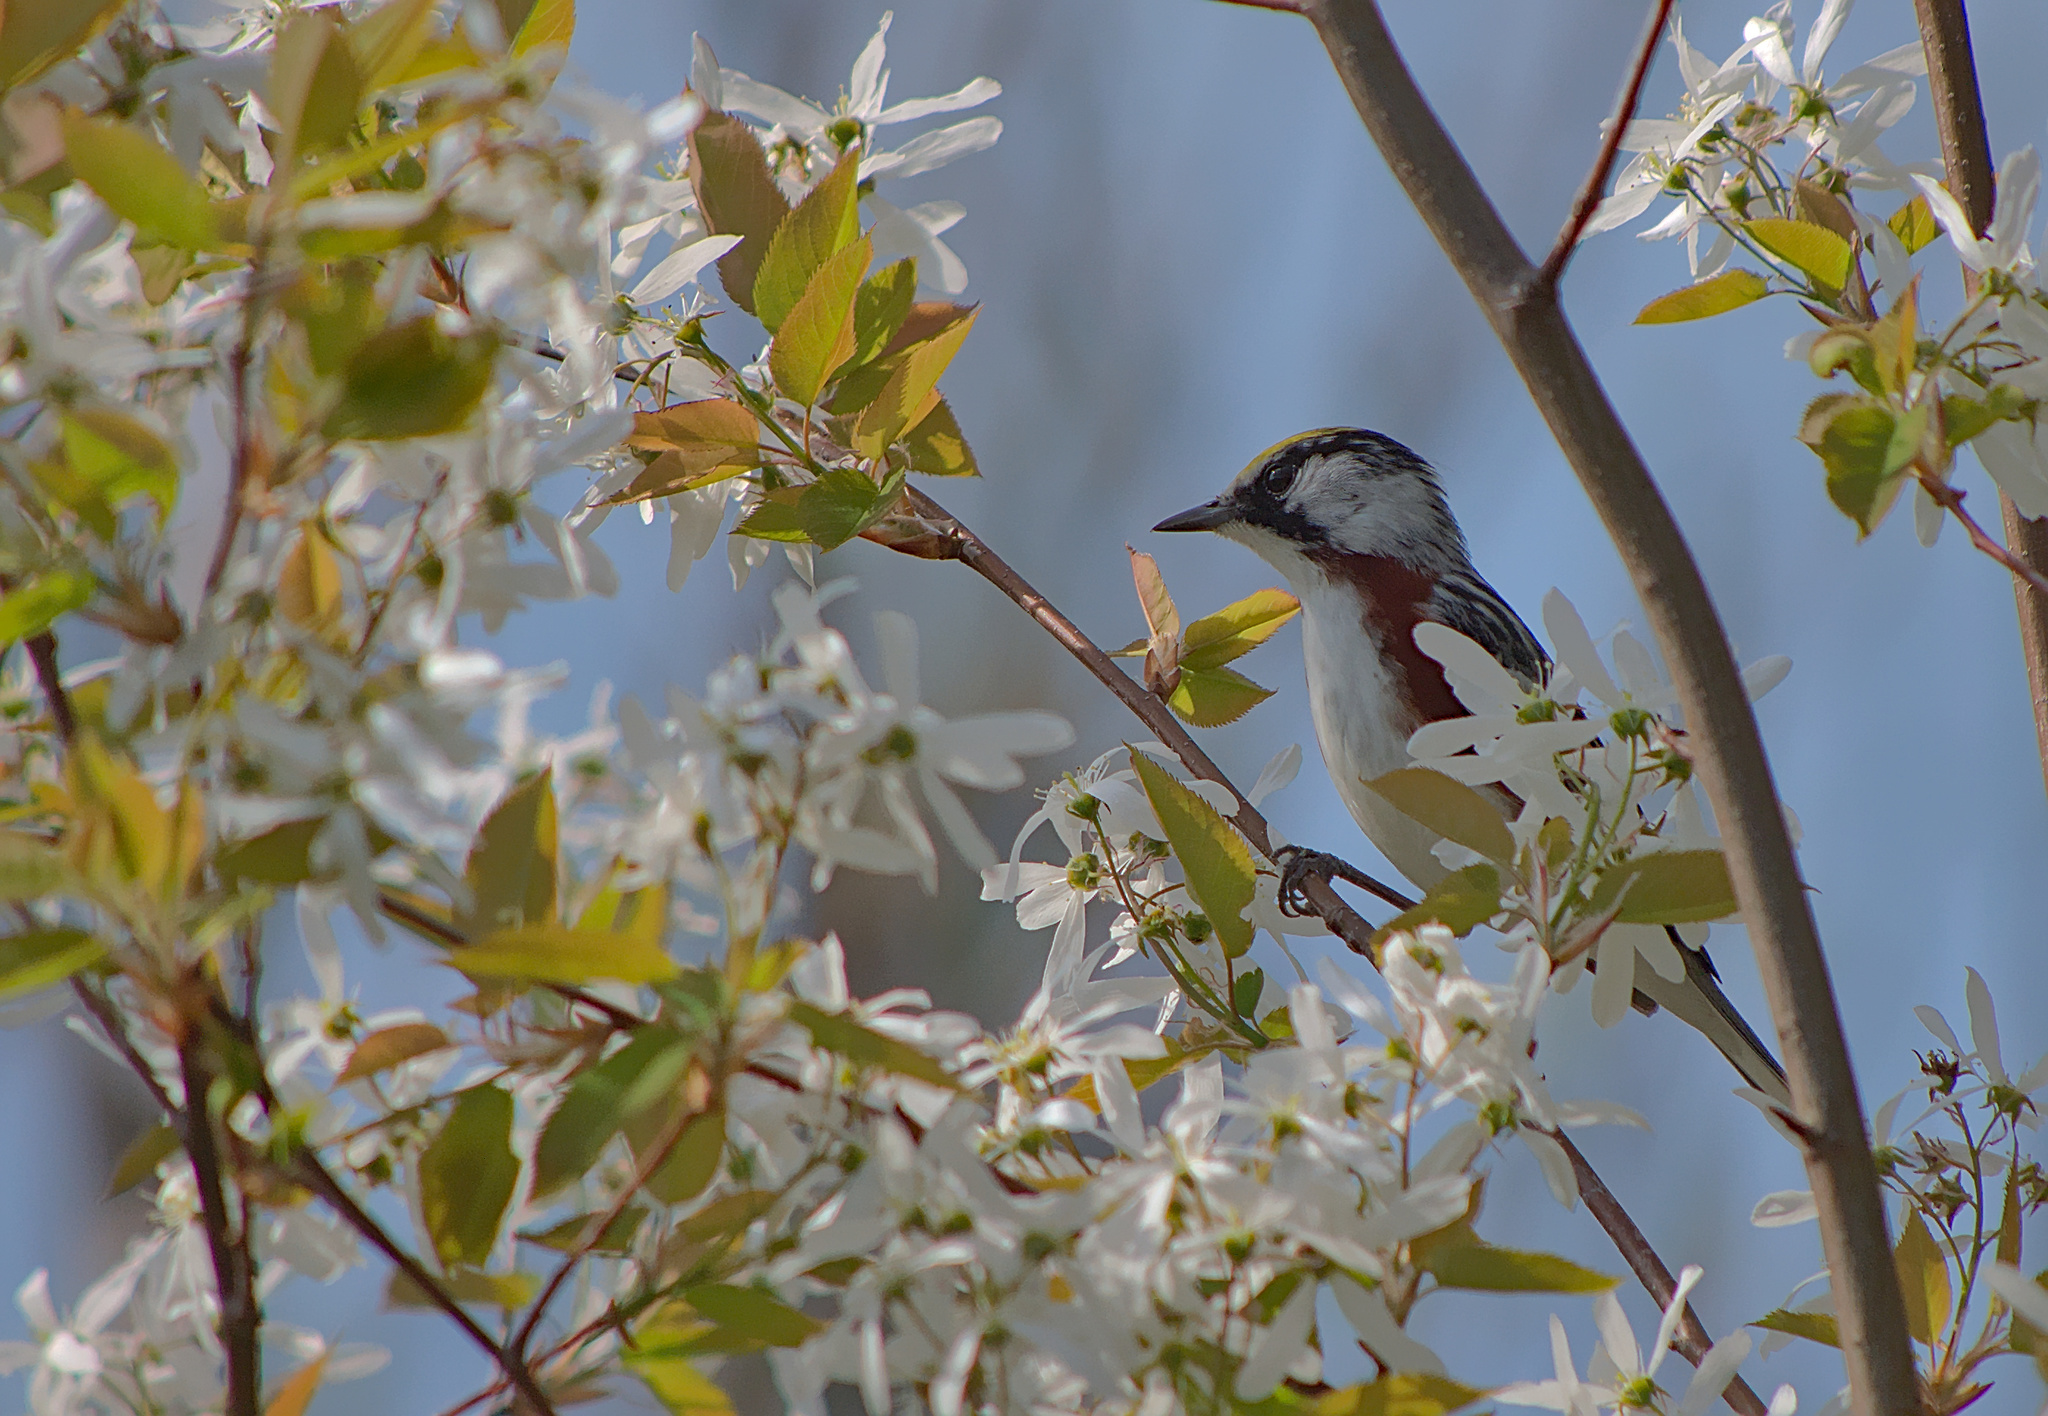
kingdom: Animalia
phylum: Chordata
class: Aves
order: Passeriformes
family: Parulidae
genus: Setophaga
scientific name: Setophaga pensylvanica
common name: Chestnut-sided warbler
